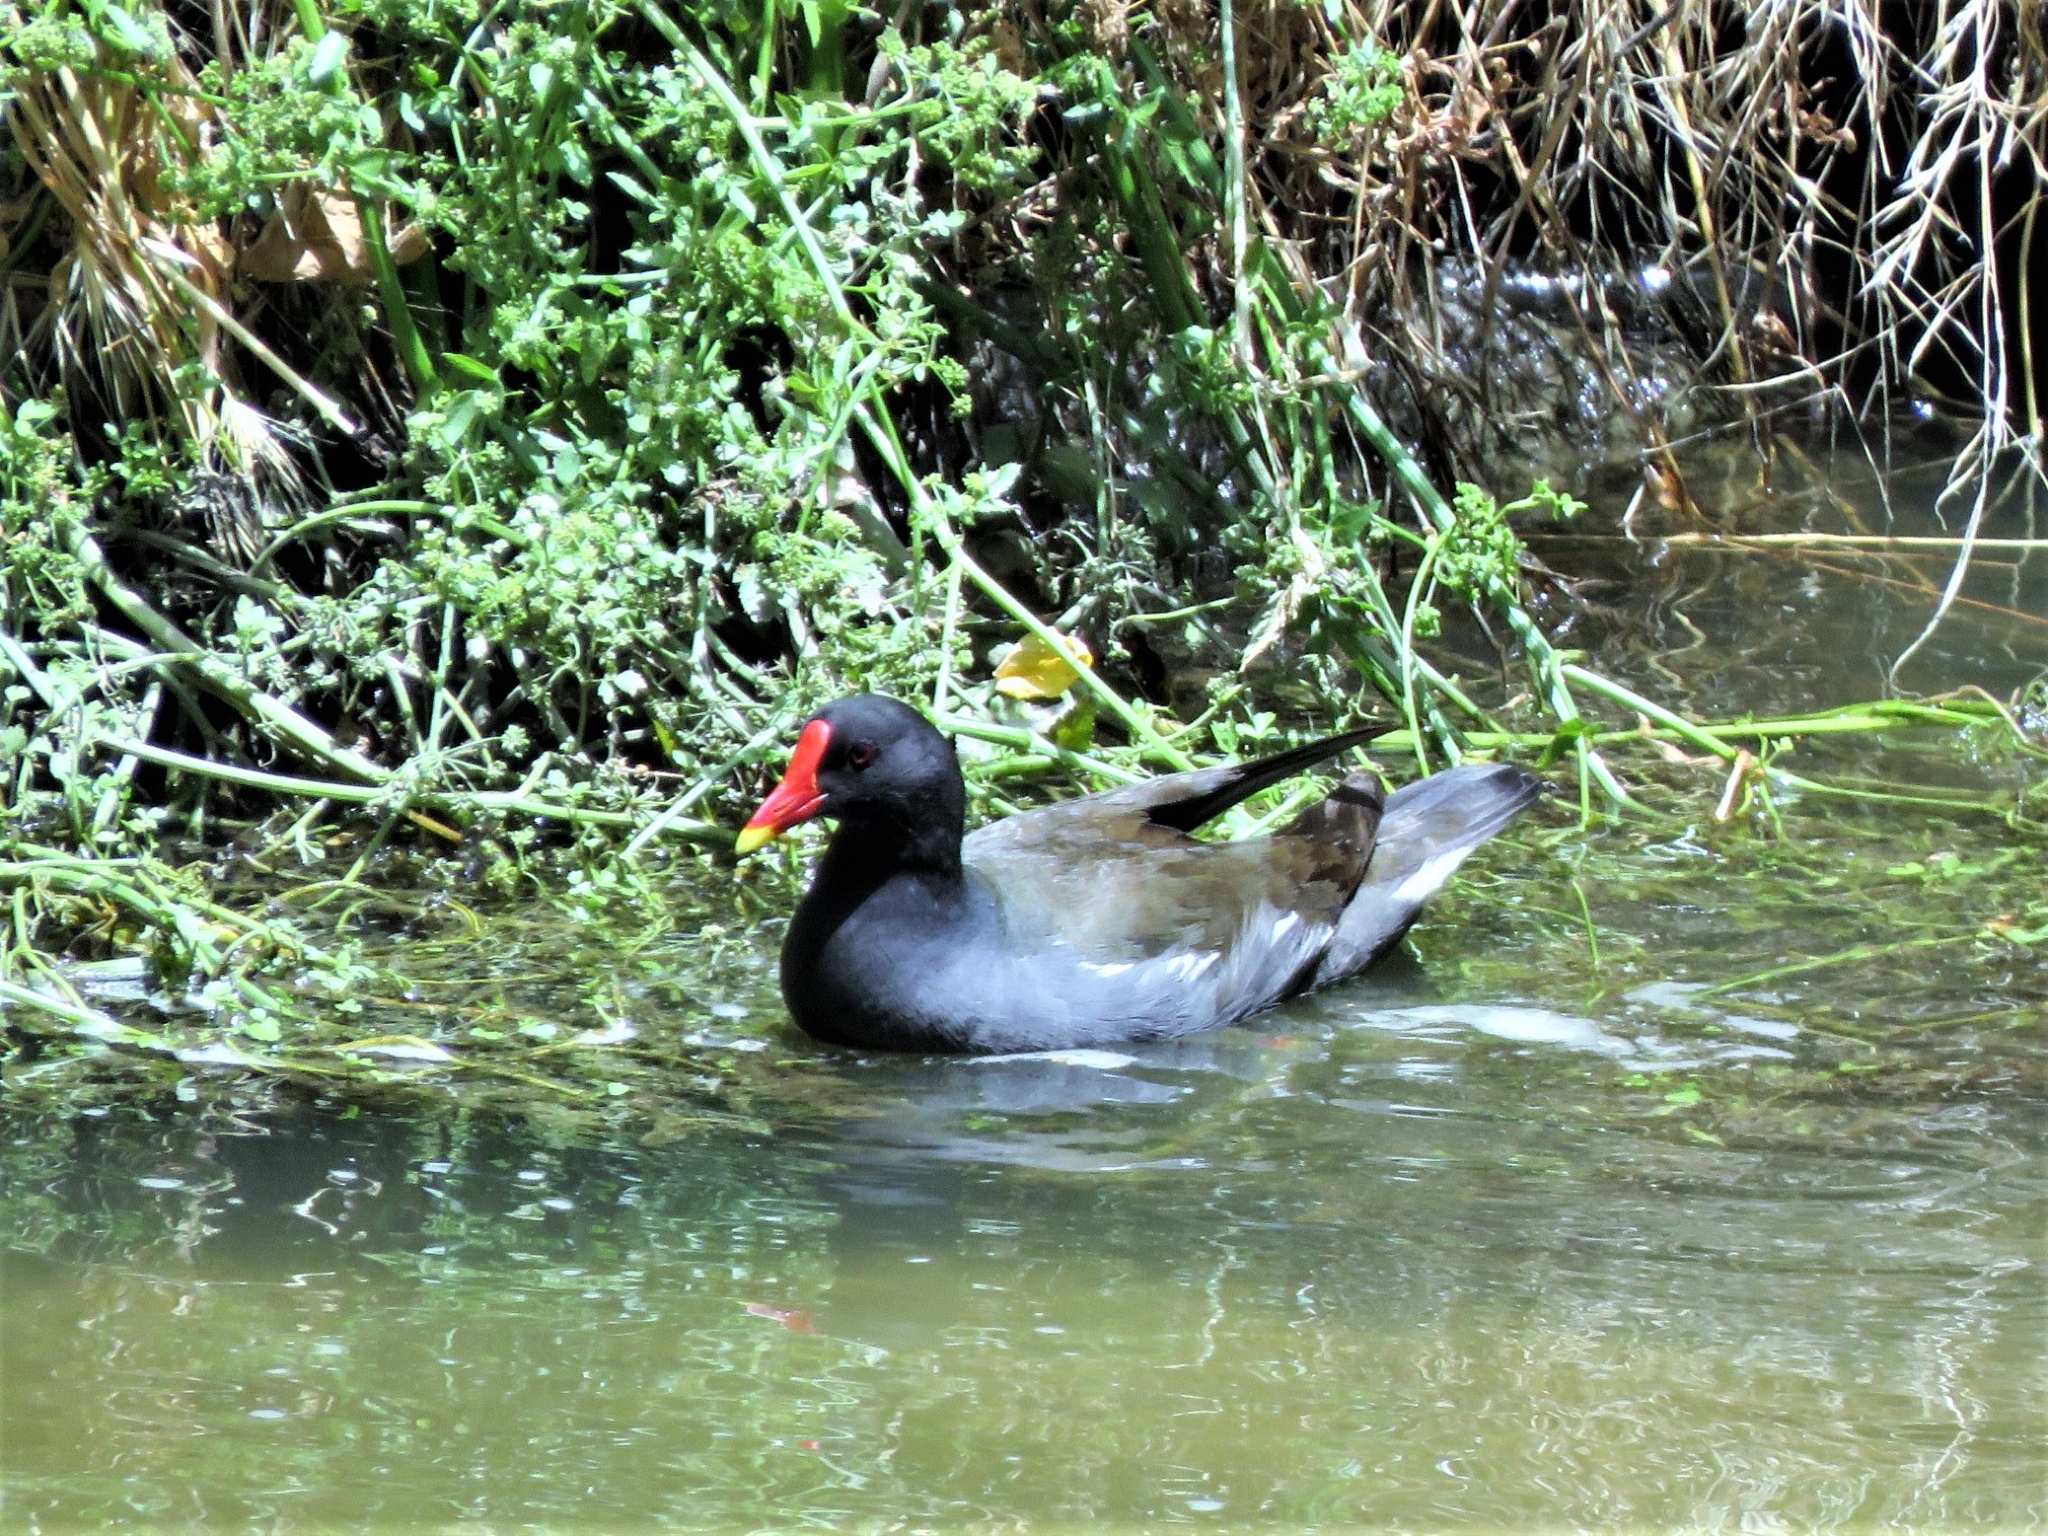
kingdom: Animalia
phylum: Chordata
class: Aves
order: Gruiformes
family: Rallidae
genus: Gallinula
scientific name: Gallinula chloropus
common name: Common moorhen
